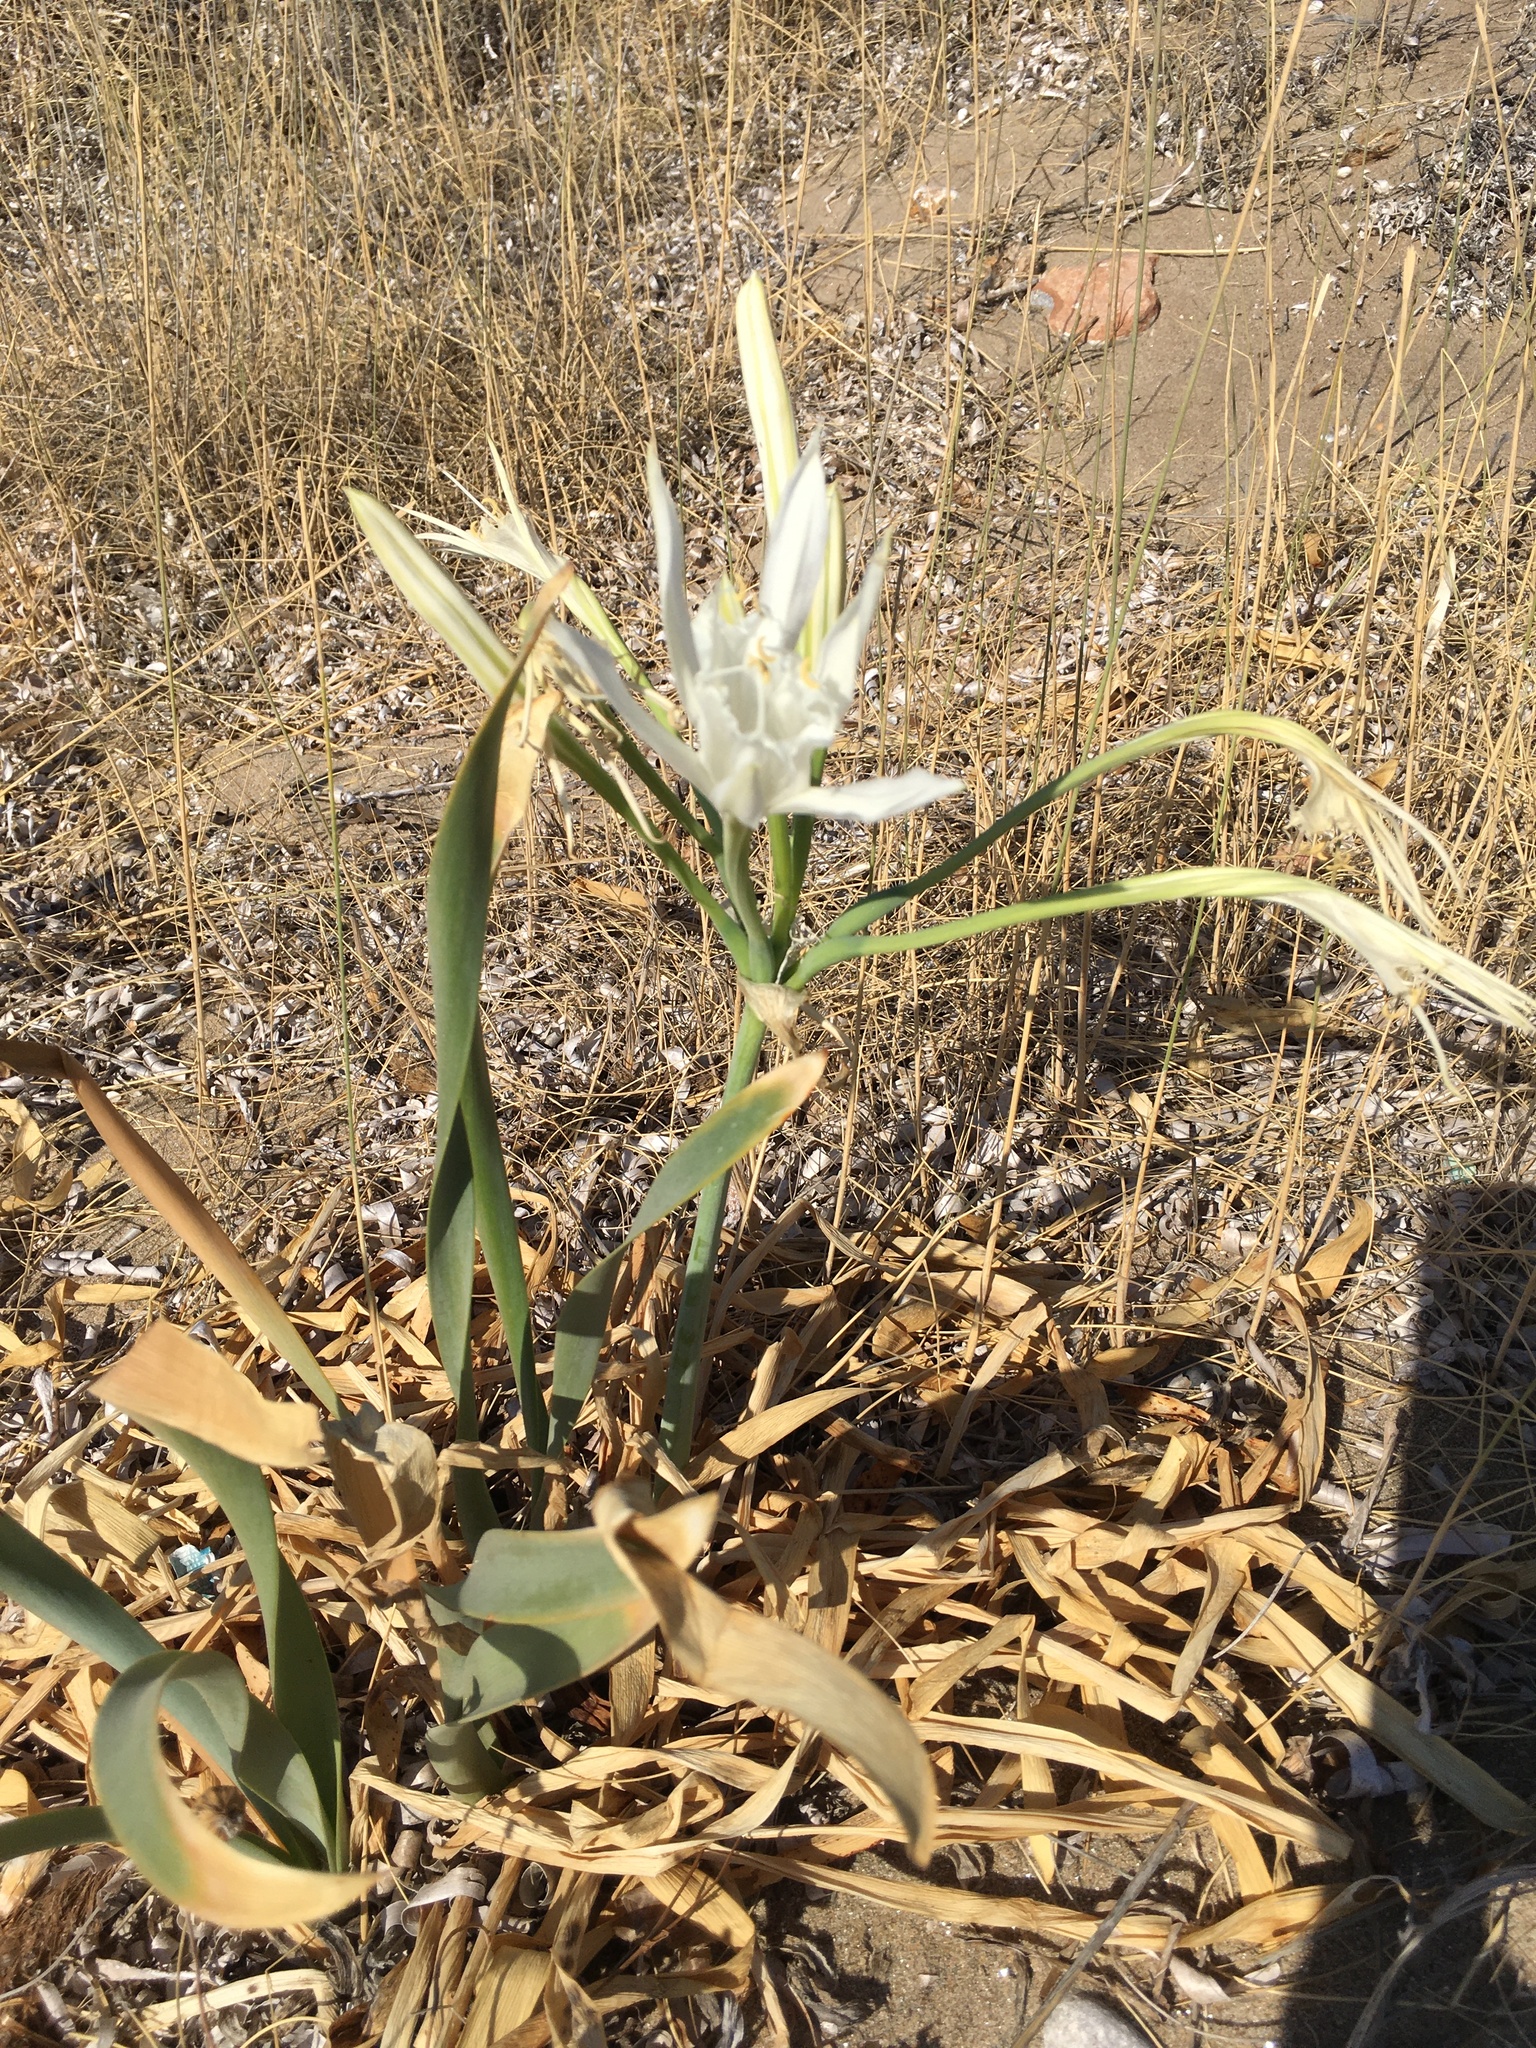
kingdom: Plantae
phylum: Tracheophyta
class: Liliopsida
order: Asparagales
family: Amaryllidaceae
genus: Pancratium
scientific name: Pancratium maritimum
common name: Sea-daffodil
